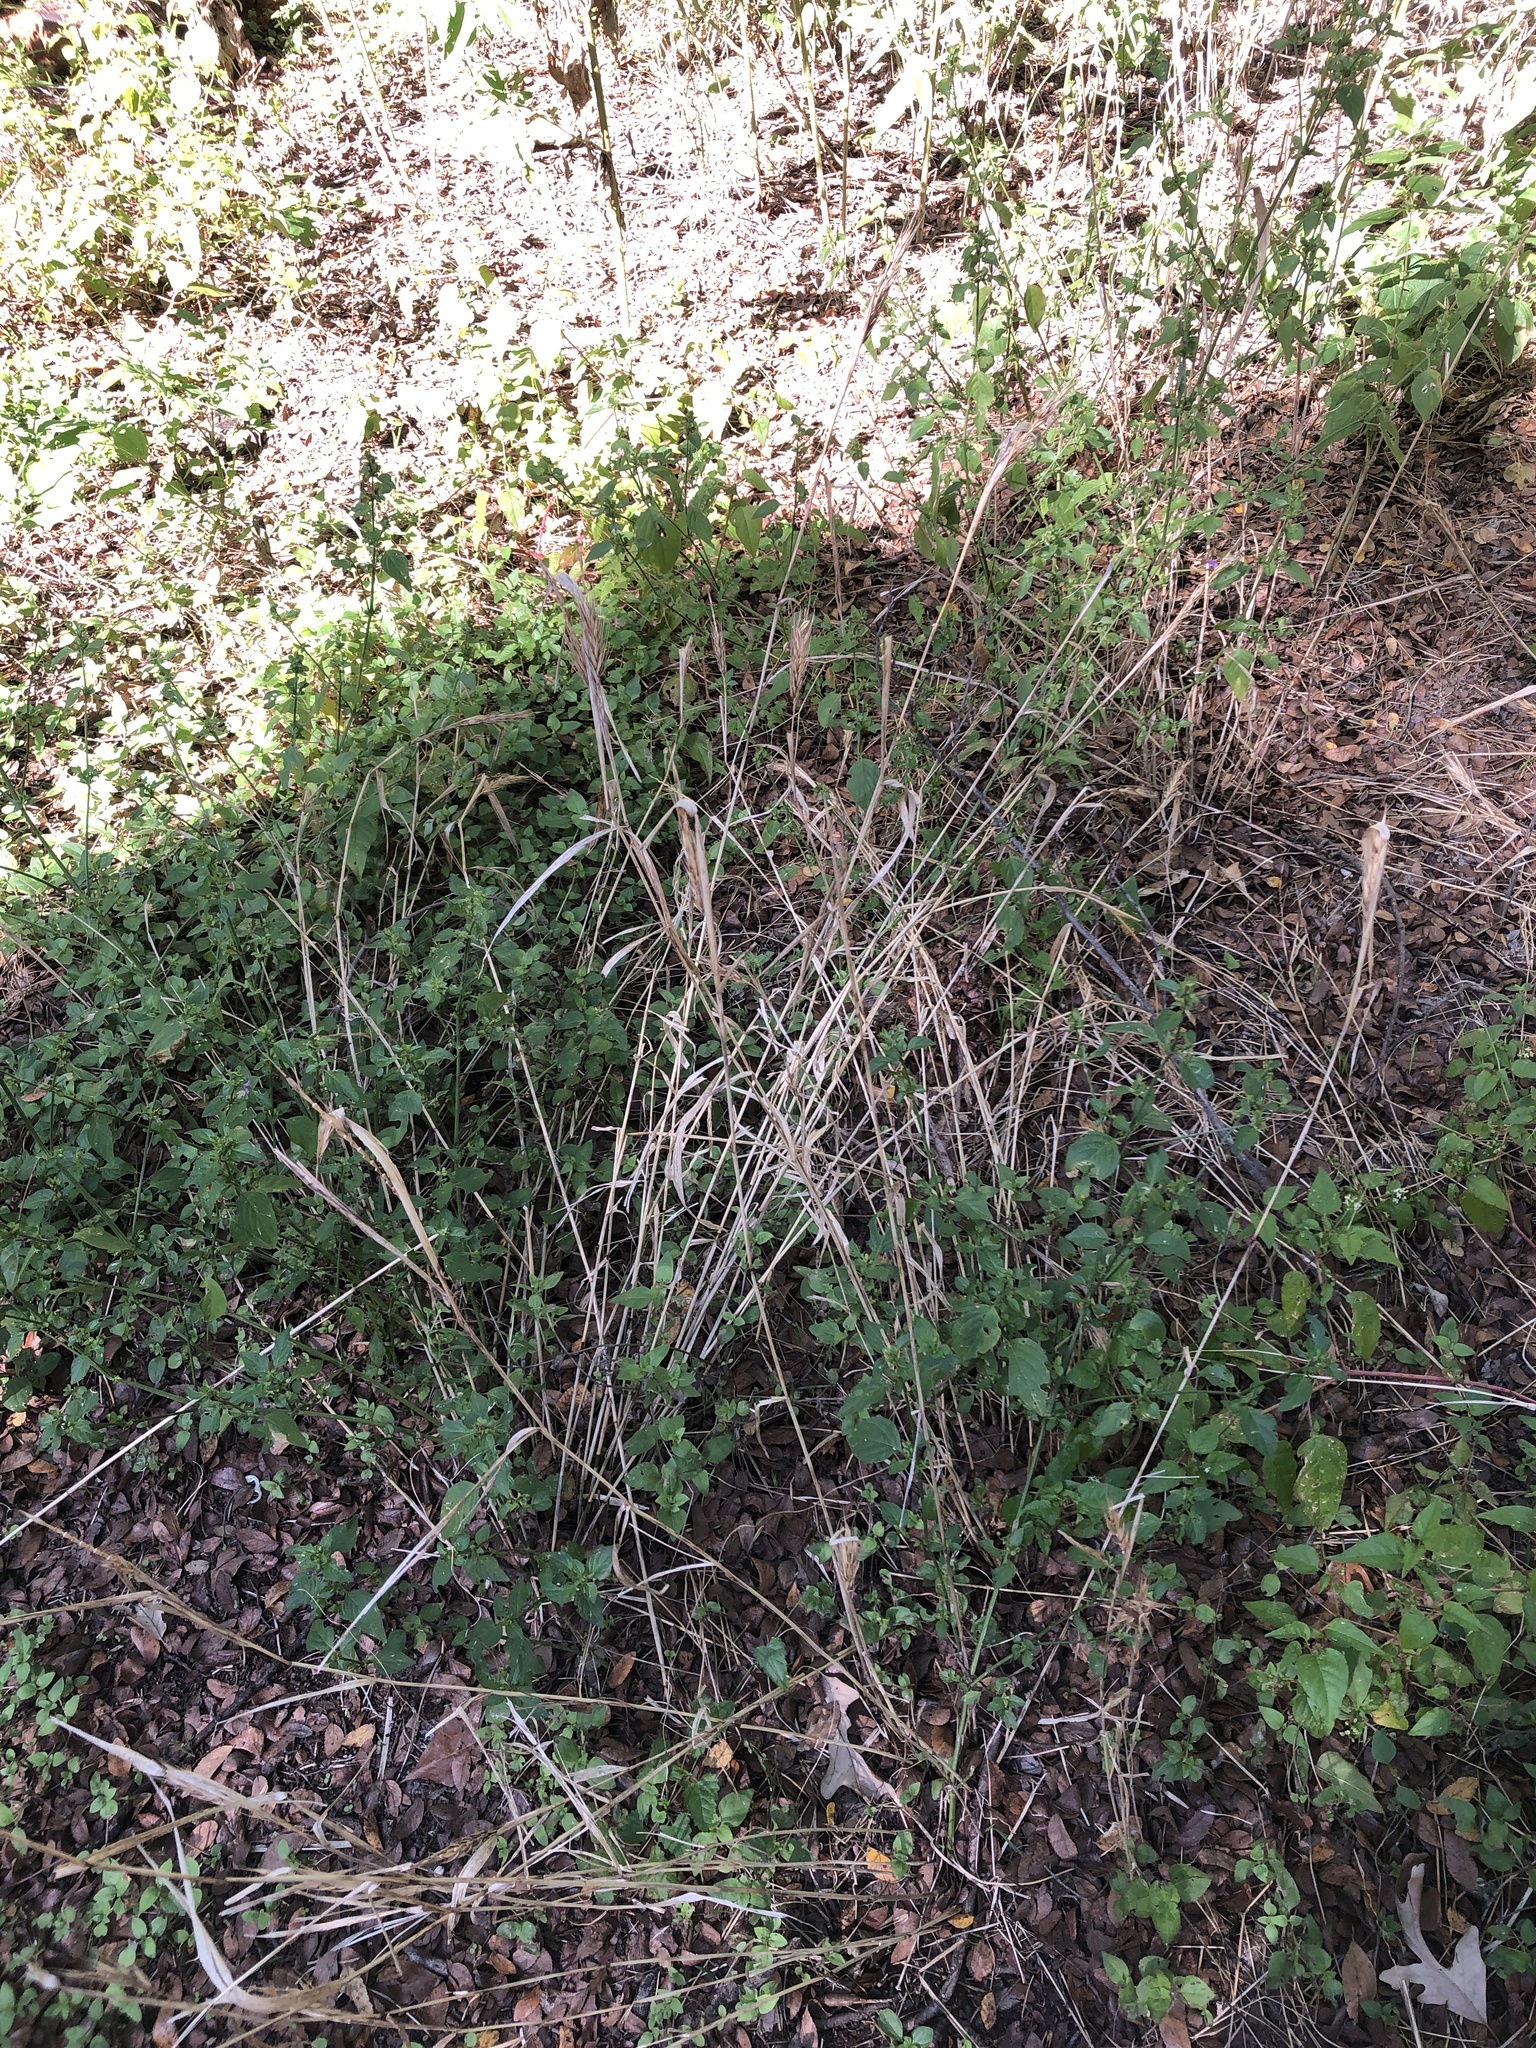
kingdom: Plantae
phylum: Tracheophyta
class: Liliopsida
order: Poales
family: Poaceae
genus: Elymus
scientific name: Elymus virginicus
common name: Common eastern wildrye
